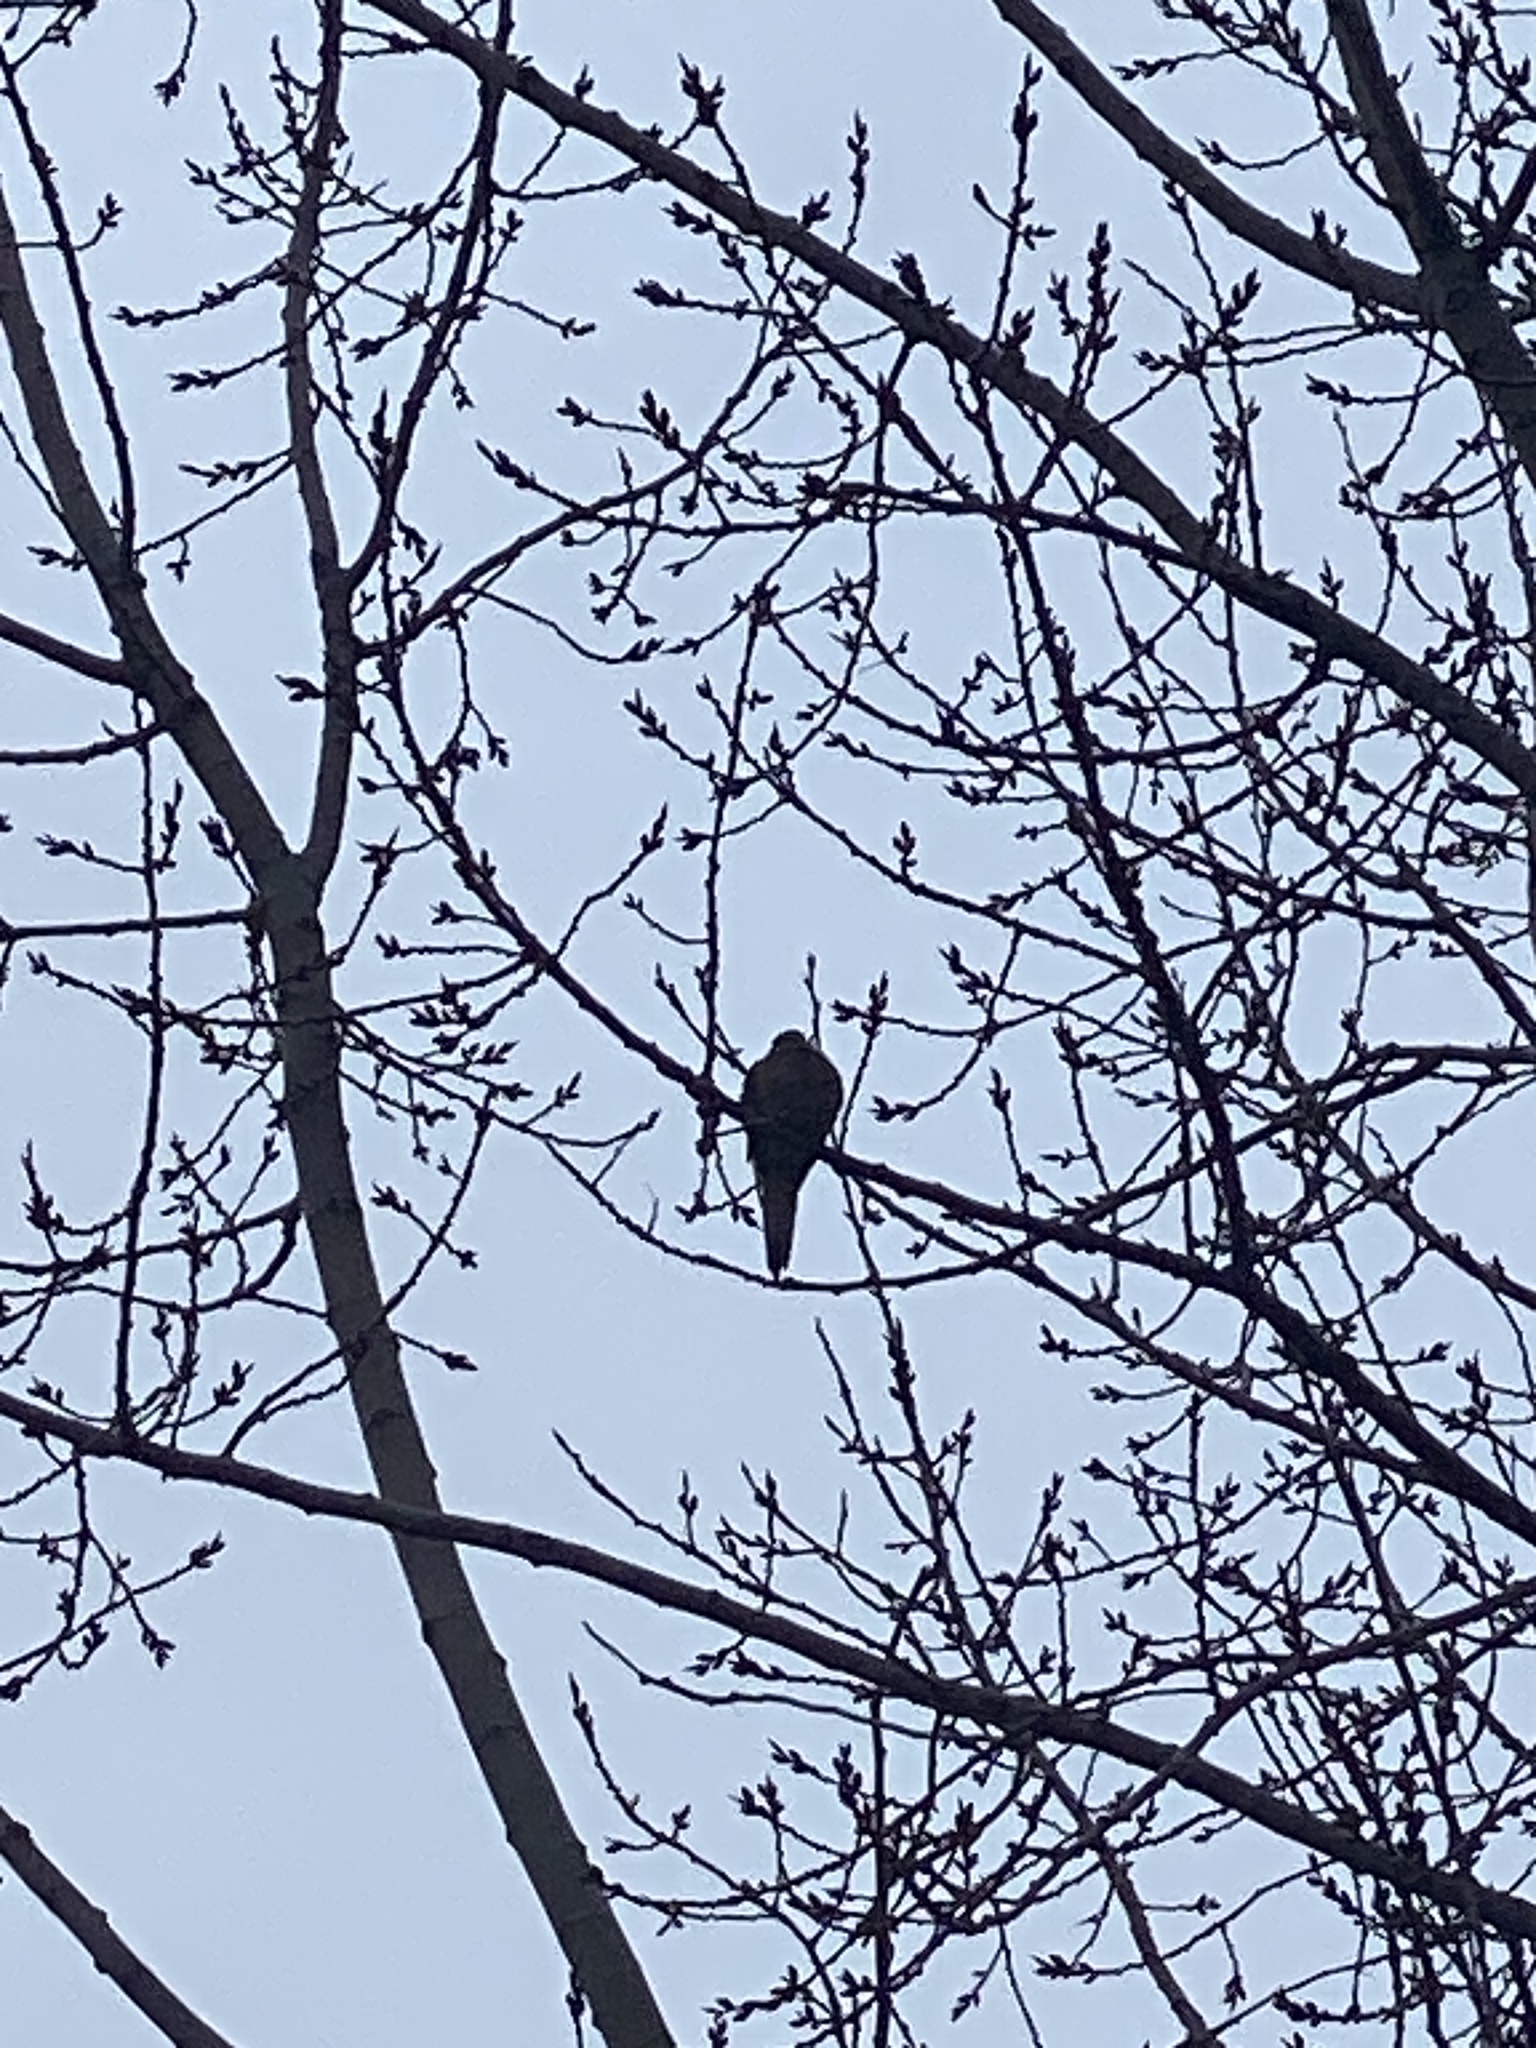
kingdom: Animalia
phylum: Chordata
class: Aves
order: Columbiformes
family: Columbidae
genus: Zenaida
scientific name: Zenaida macroura
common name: Mourning dove
